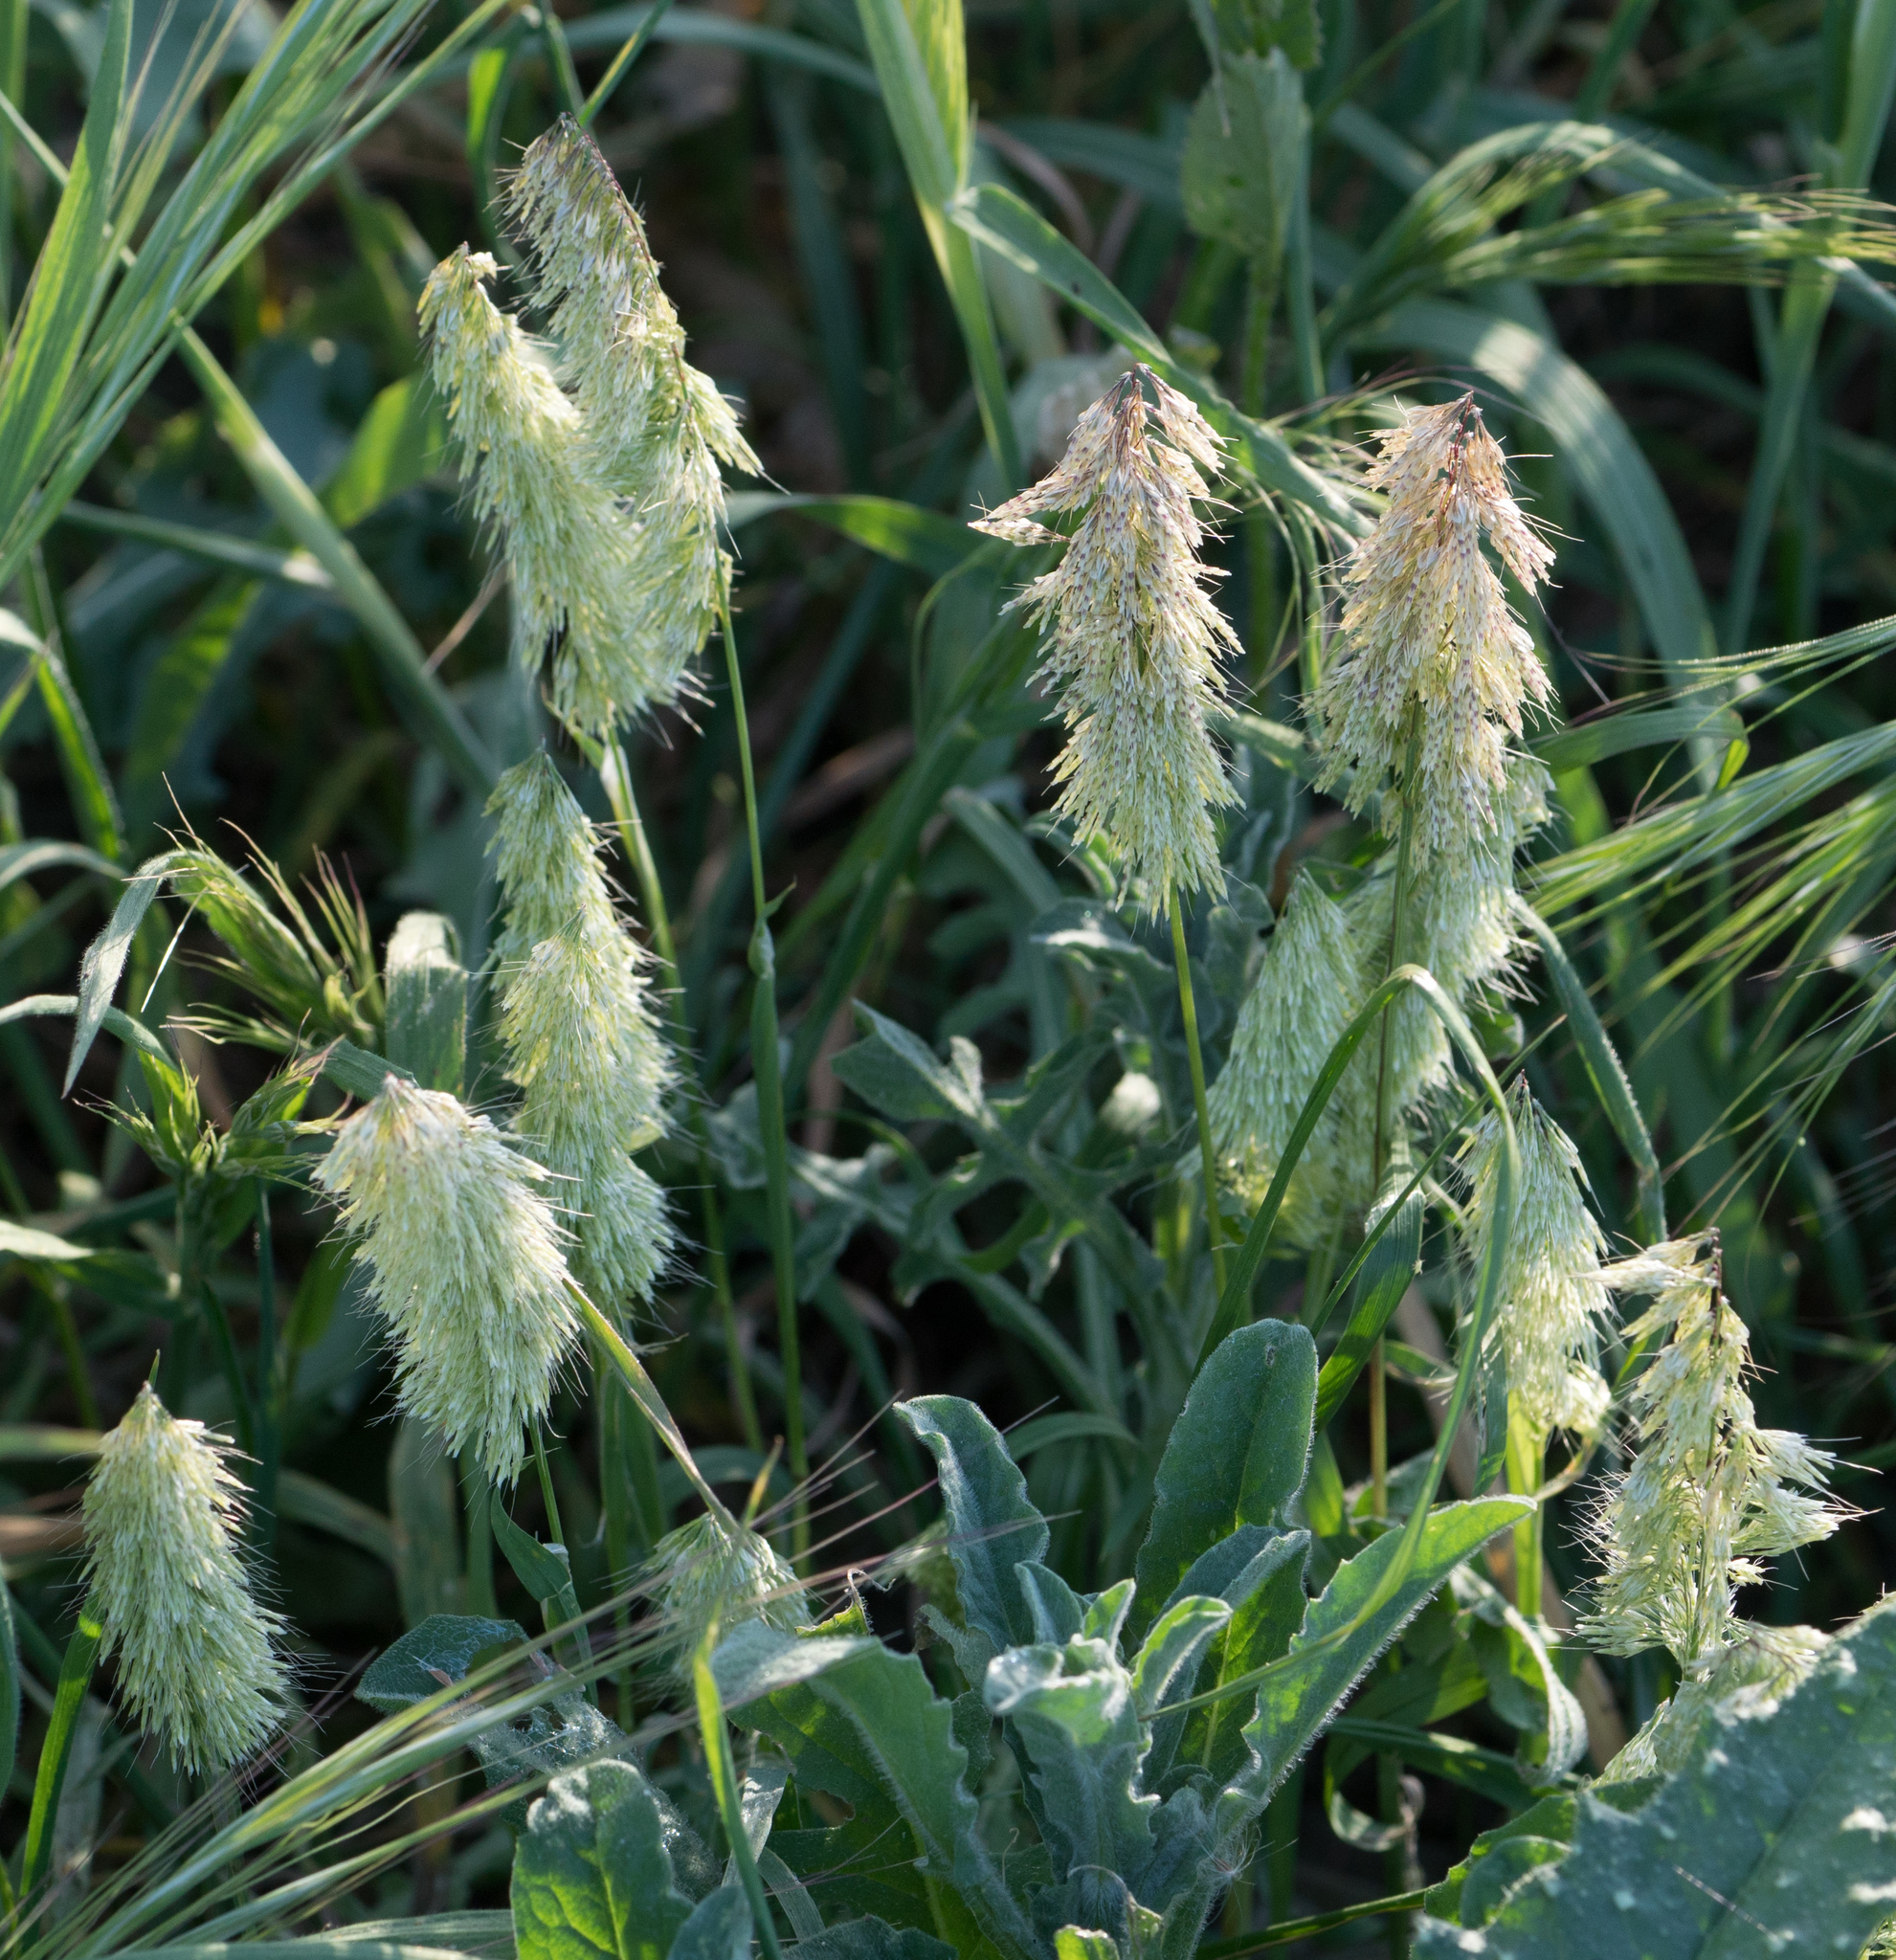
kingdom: Plantae
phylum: Tracheophyta
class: Liliopsida
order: Poales
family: Poaceae
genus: Lamarckia
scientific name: Lamarckia aurea
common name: Golden dog's-tail
